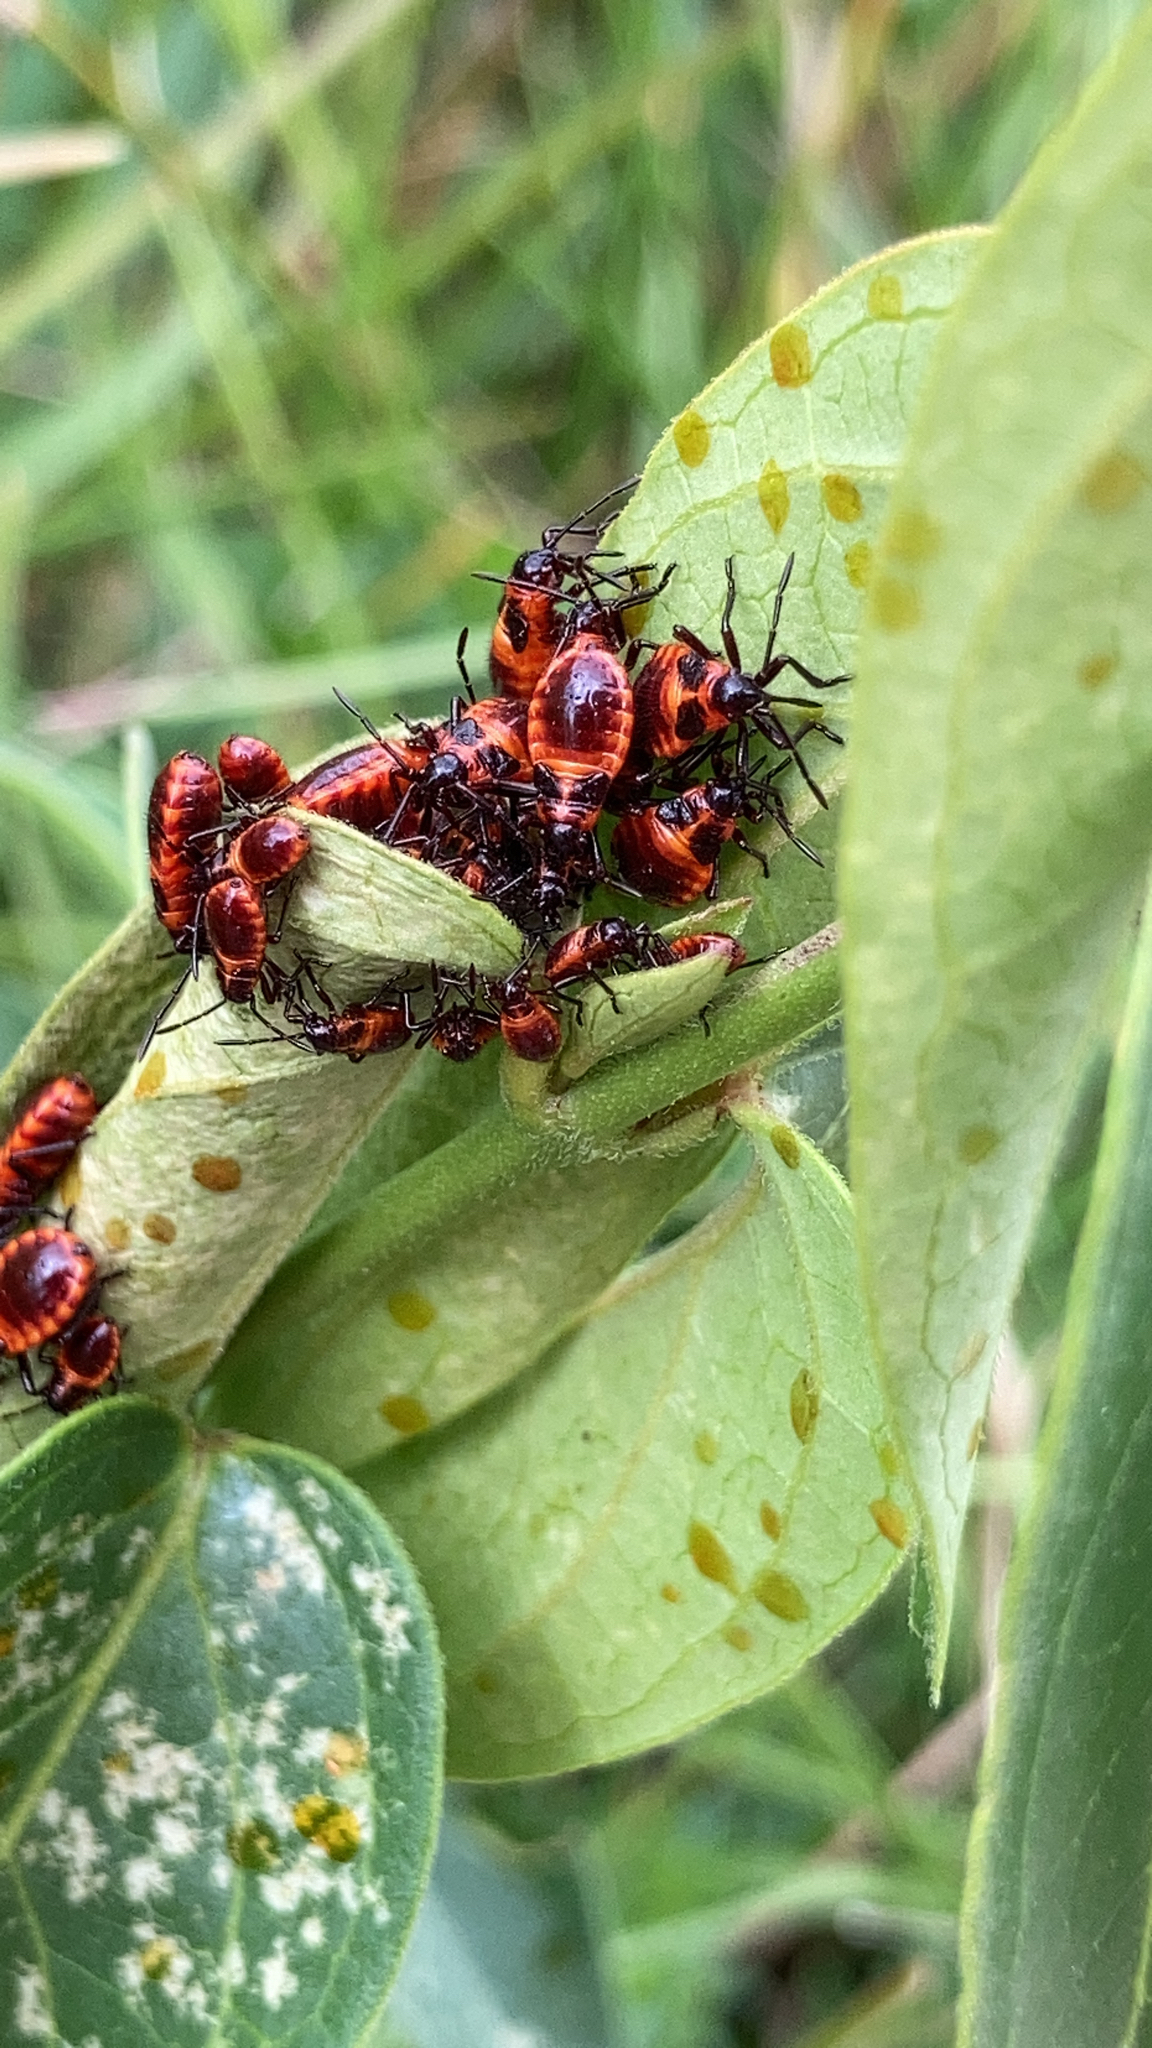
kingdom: Animalia
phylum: Arthropoda
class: Insecta
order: Hemiptera
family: Lygaeidae
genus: Tropidothorax
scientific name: Tropidothorax leucopterus
